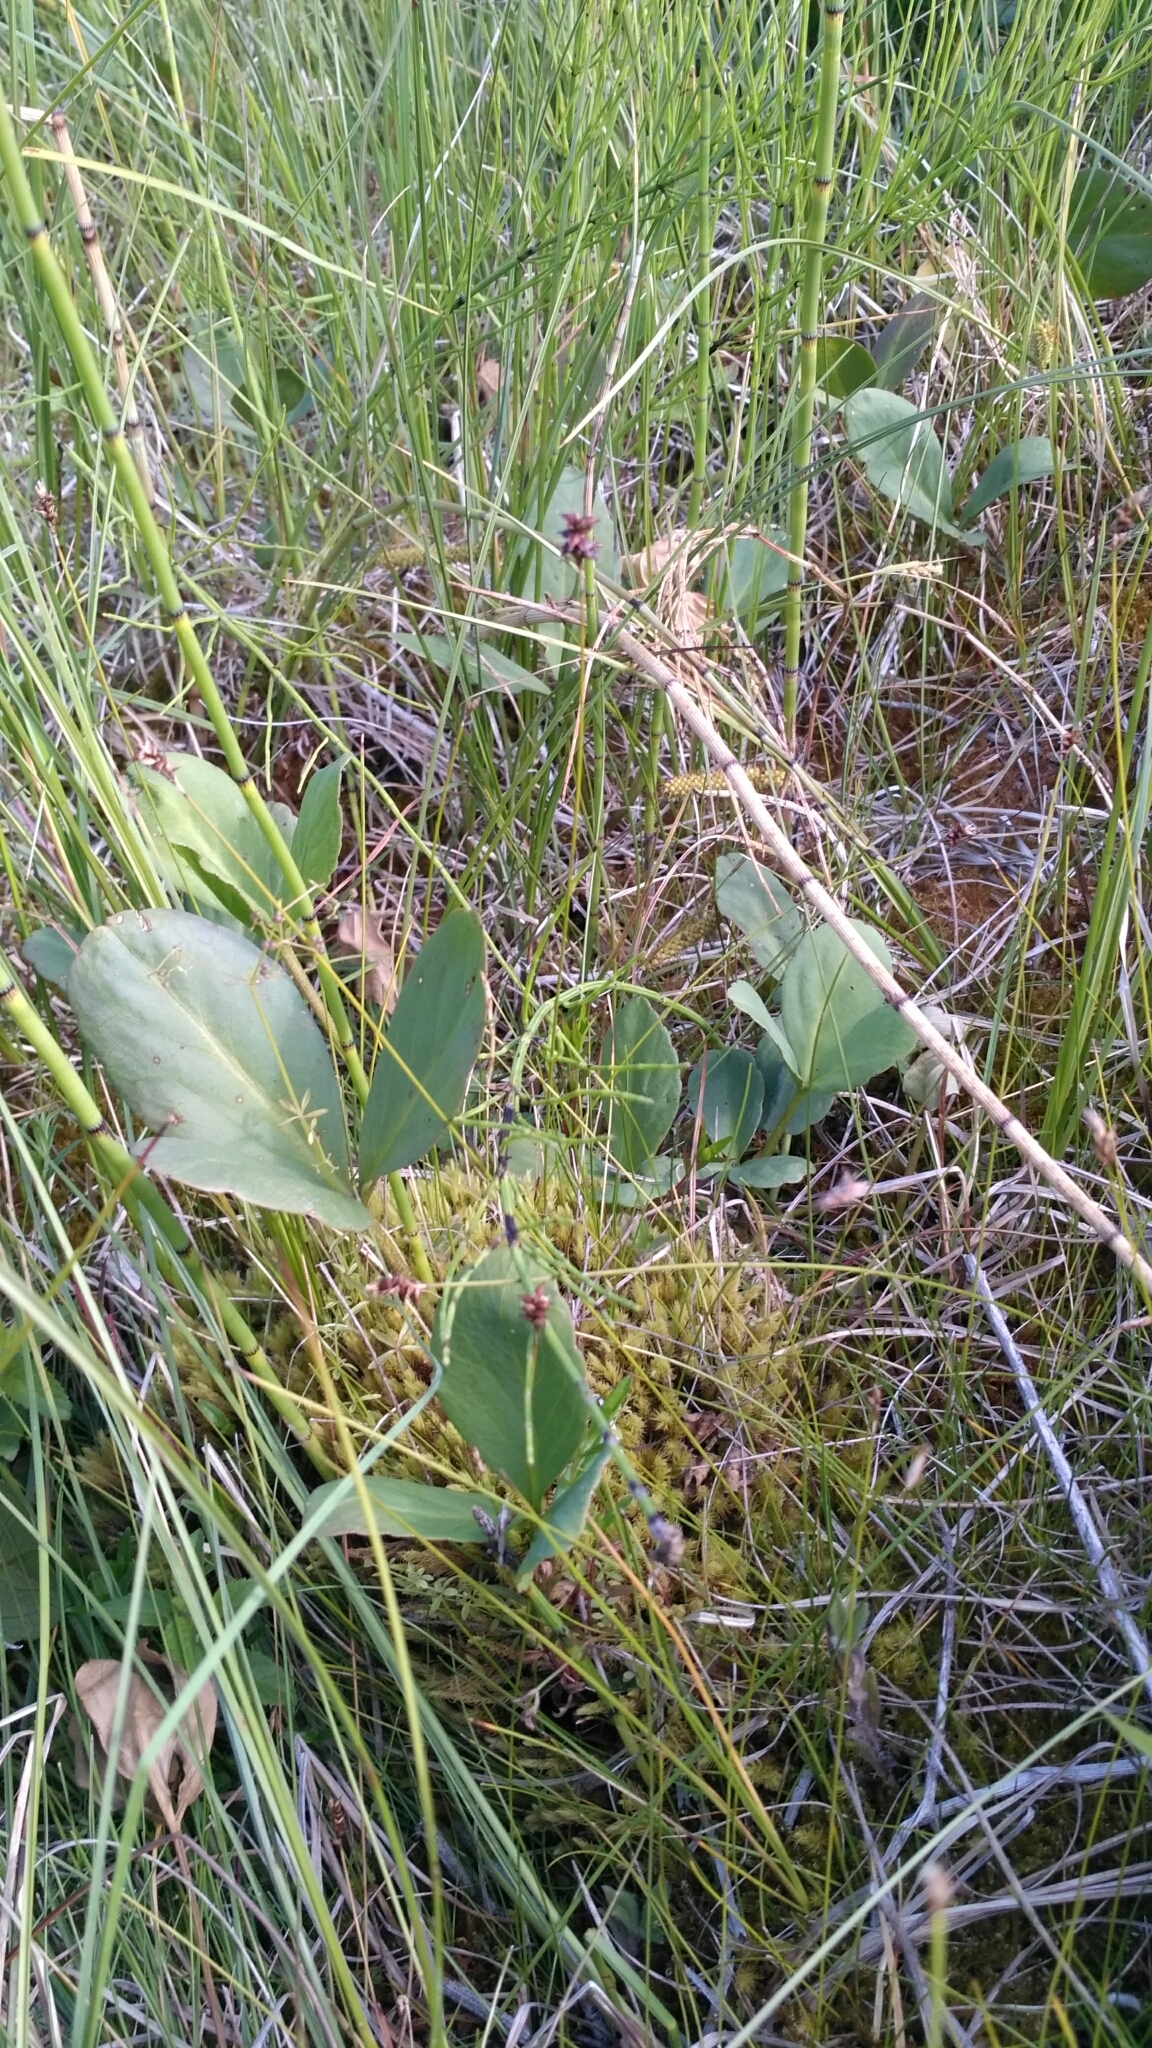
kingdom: Plantae
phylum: Tracheophyta
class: Liliopsida
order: Poales
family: Cyperaceae
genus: Carex
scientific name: Carex dioica
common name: Dioecious sedge
